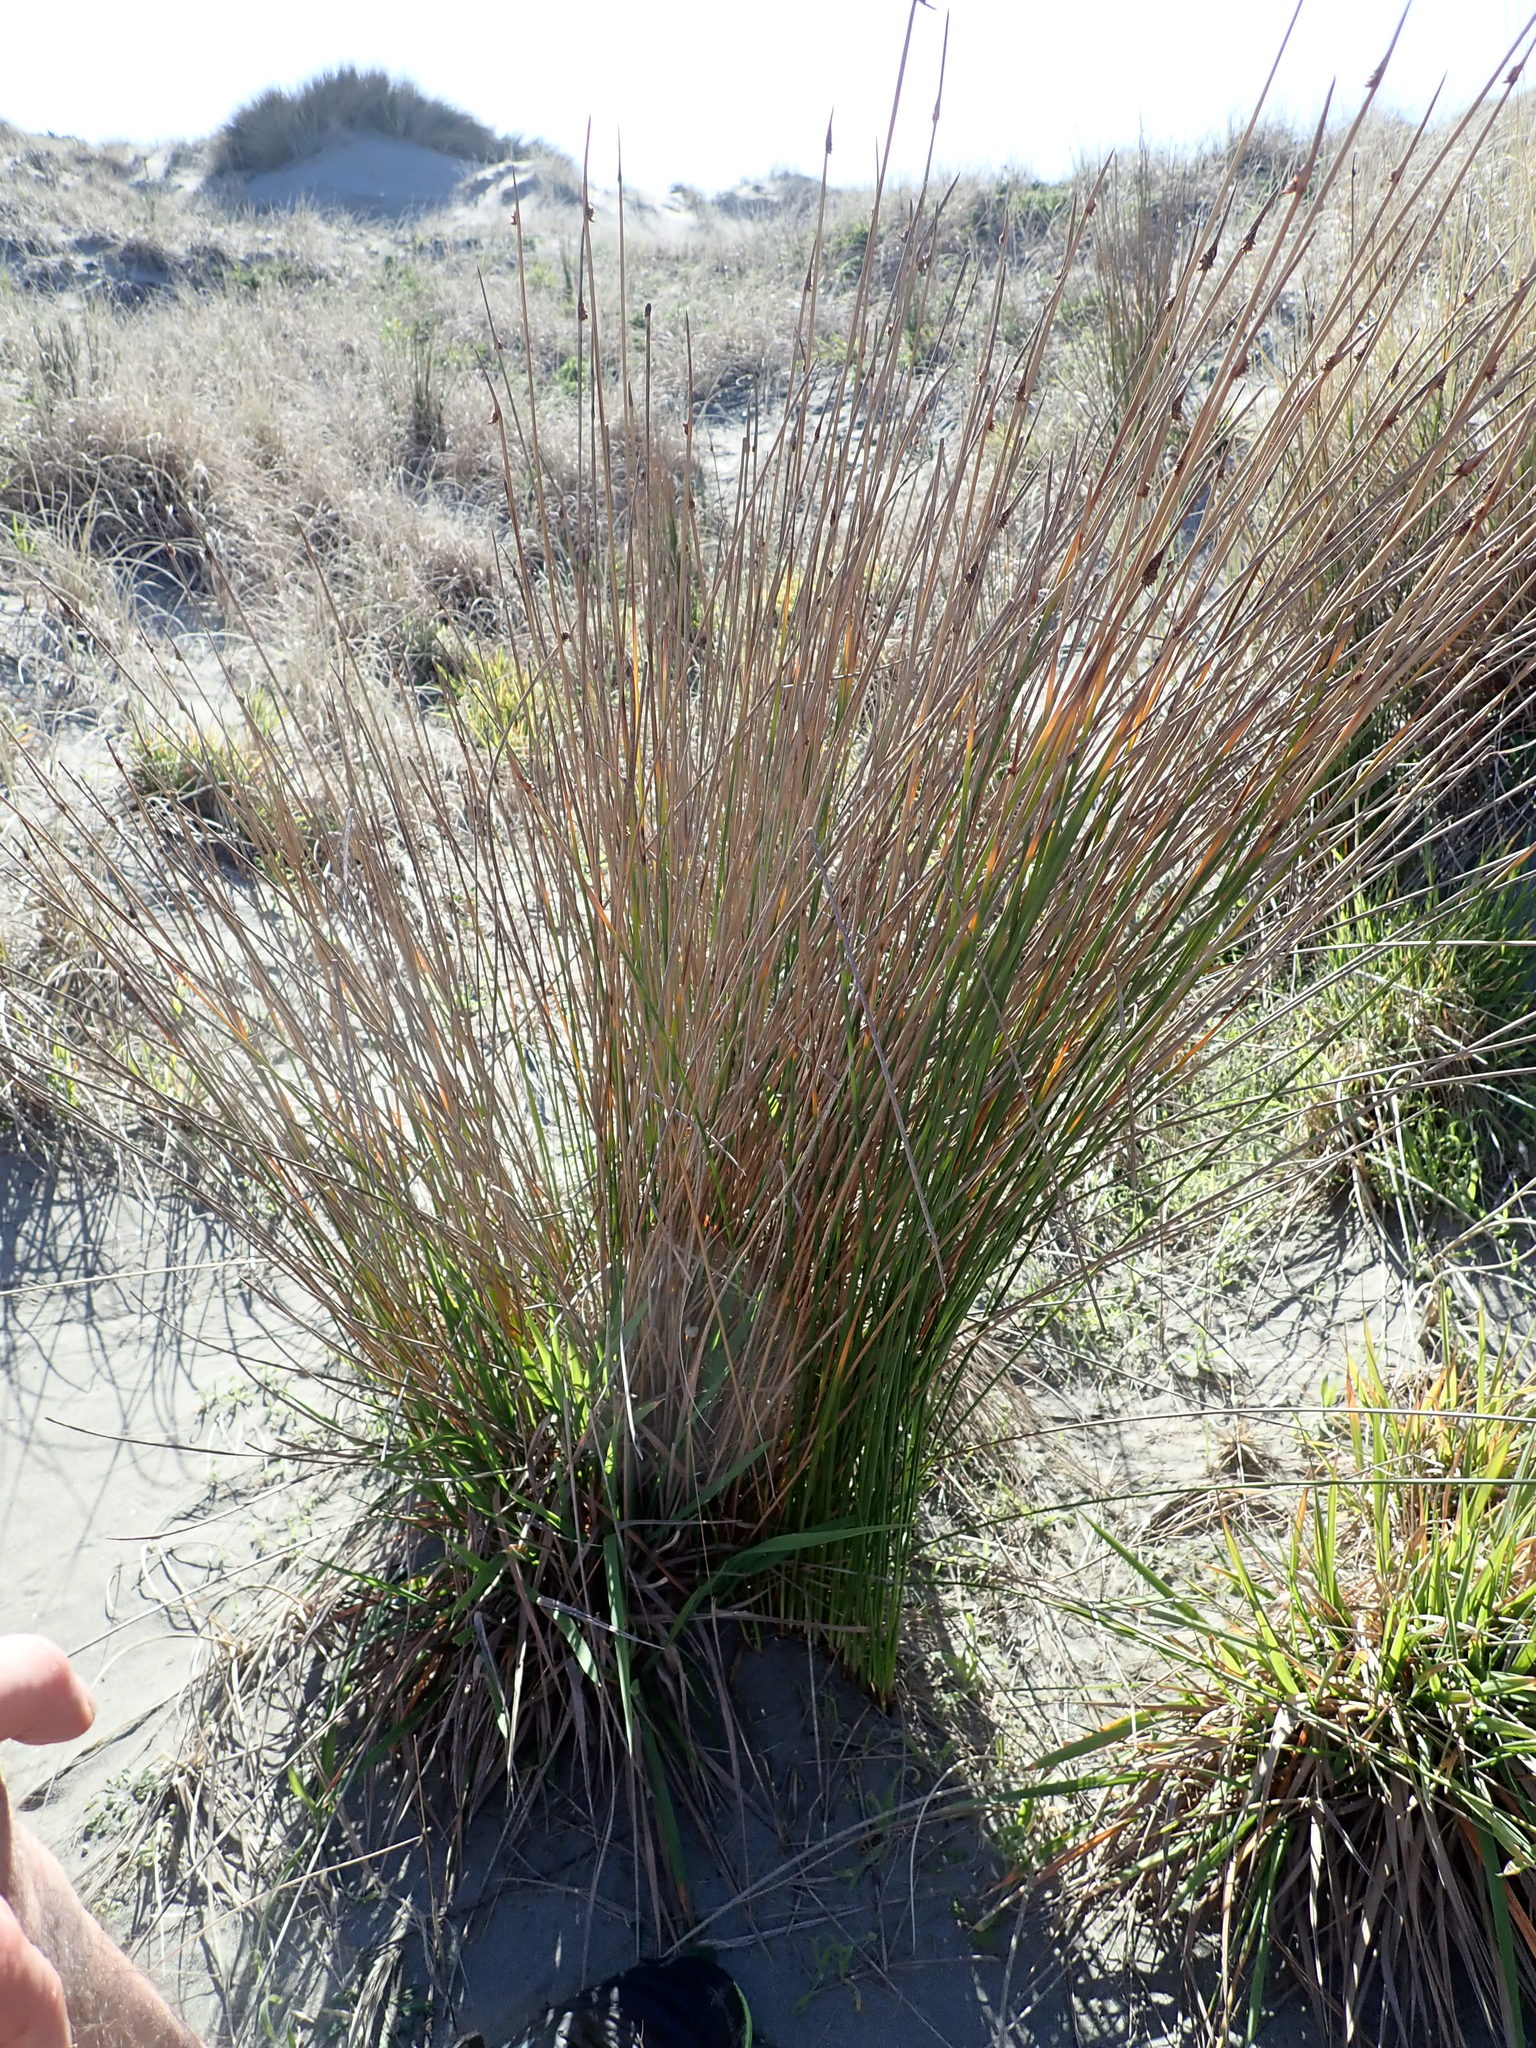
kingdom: Plantae
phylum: Tracheophyta
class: Liliopsida
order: Poales
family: Cyperaceae
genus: Ficinia
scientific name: Ficinia nodosa
